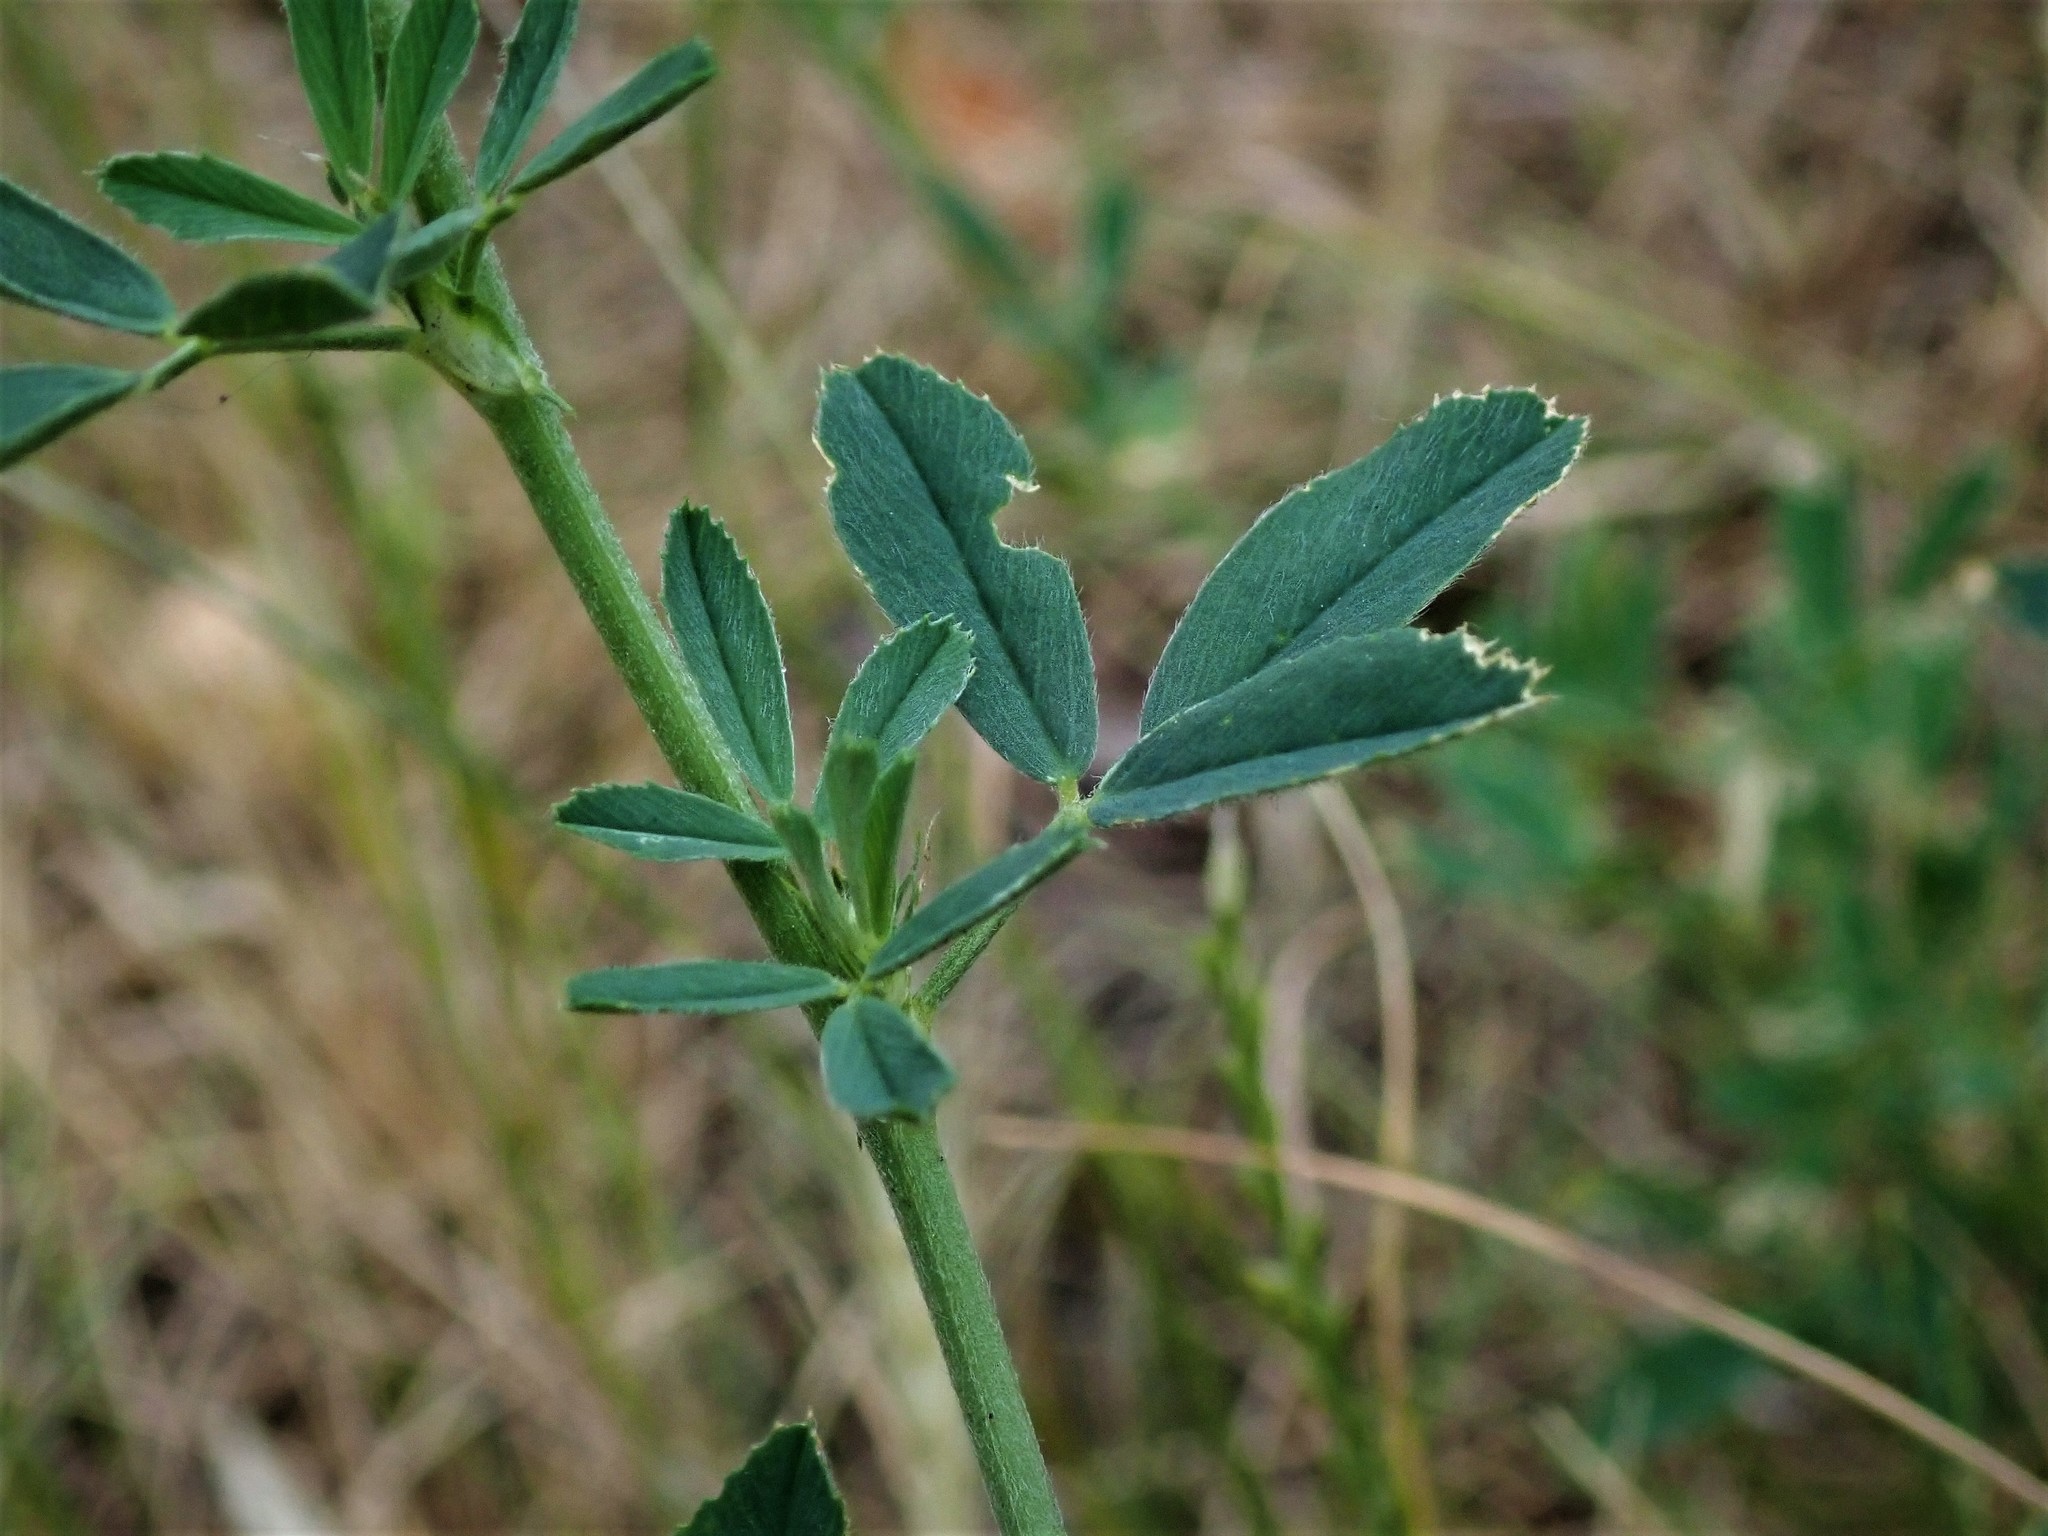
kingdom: Plantae
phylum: Tracheophyta
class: Magnoliopsida
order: Fabales
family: Fabaceae
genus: Medicago
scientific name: Medicago sativa
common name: Alfalfa
